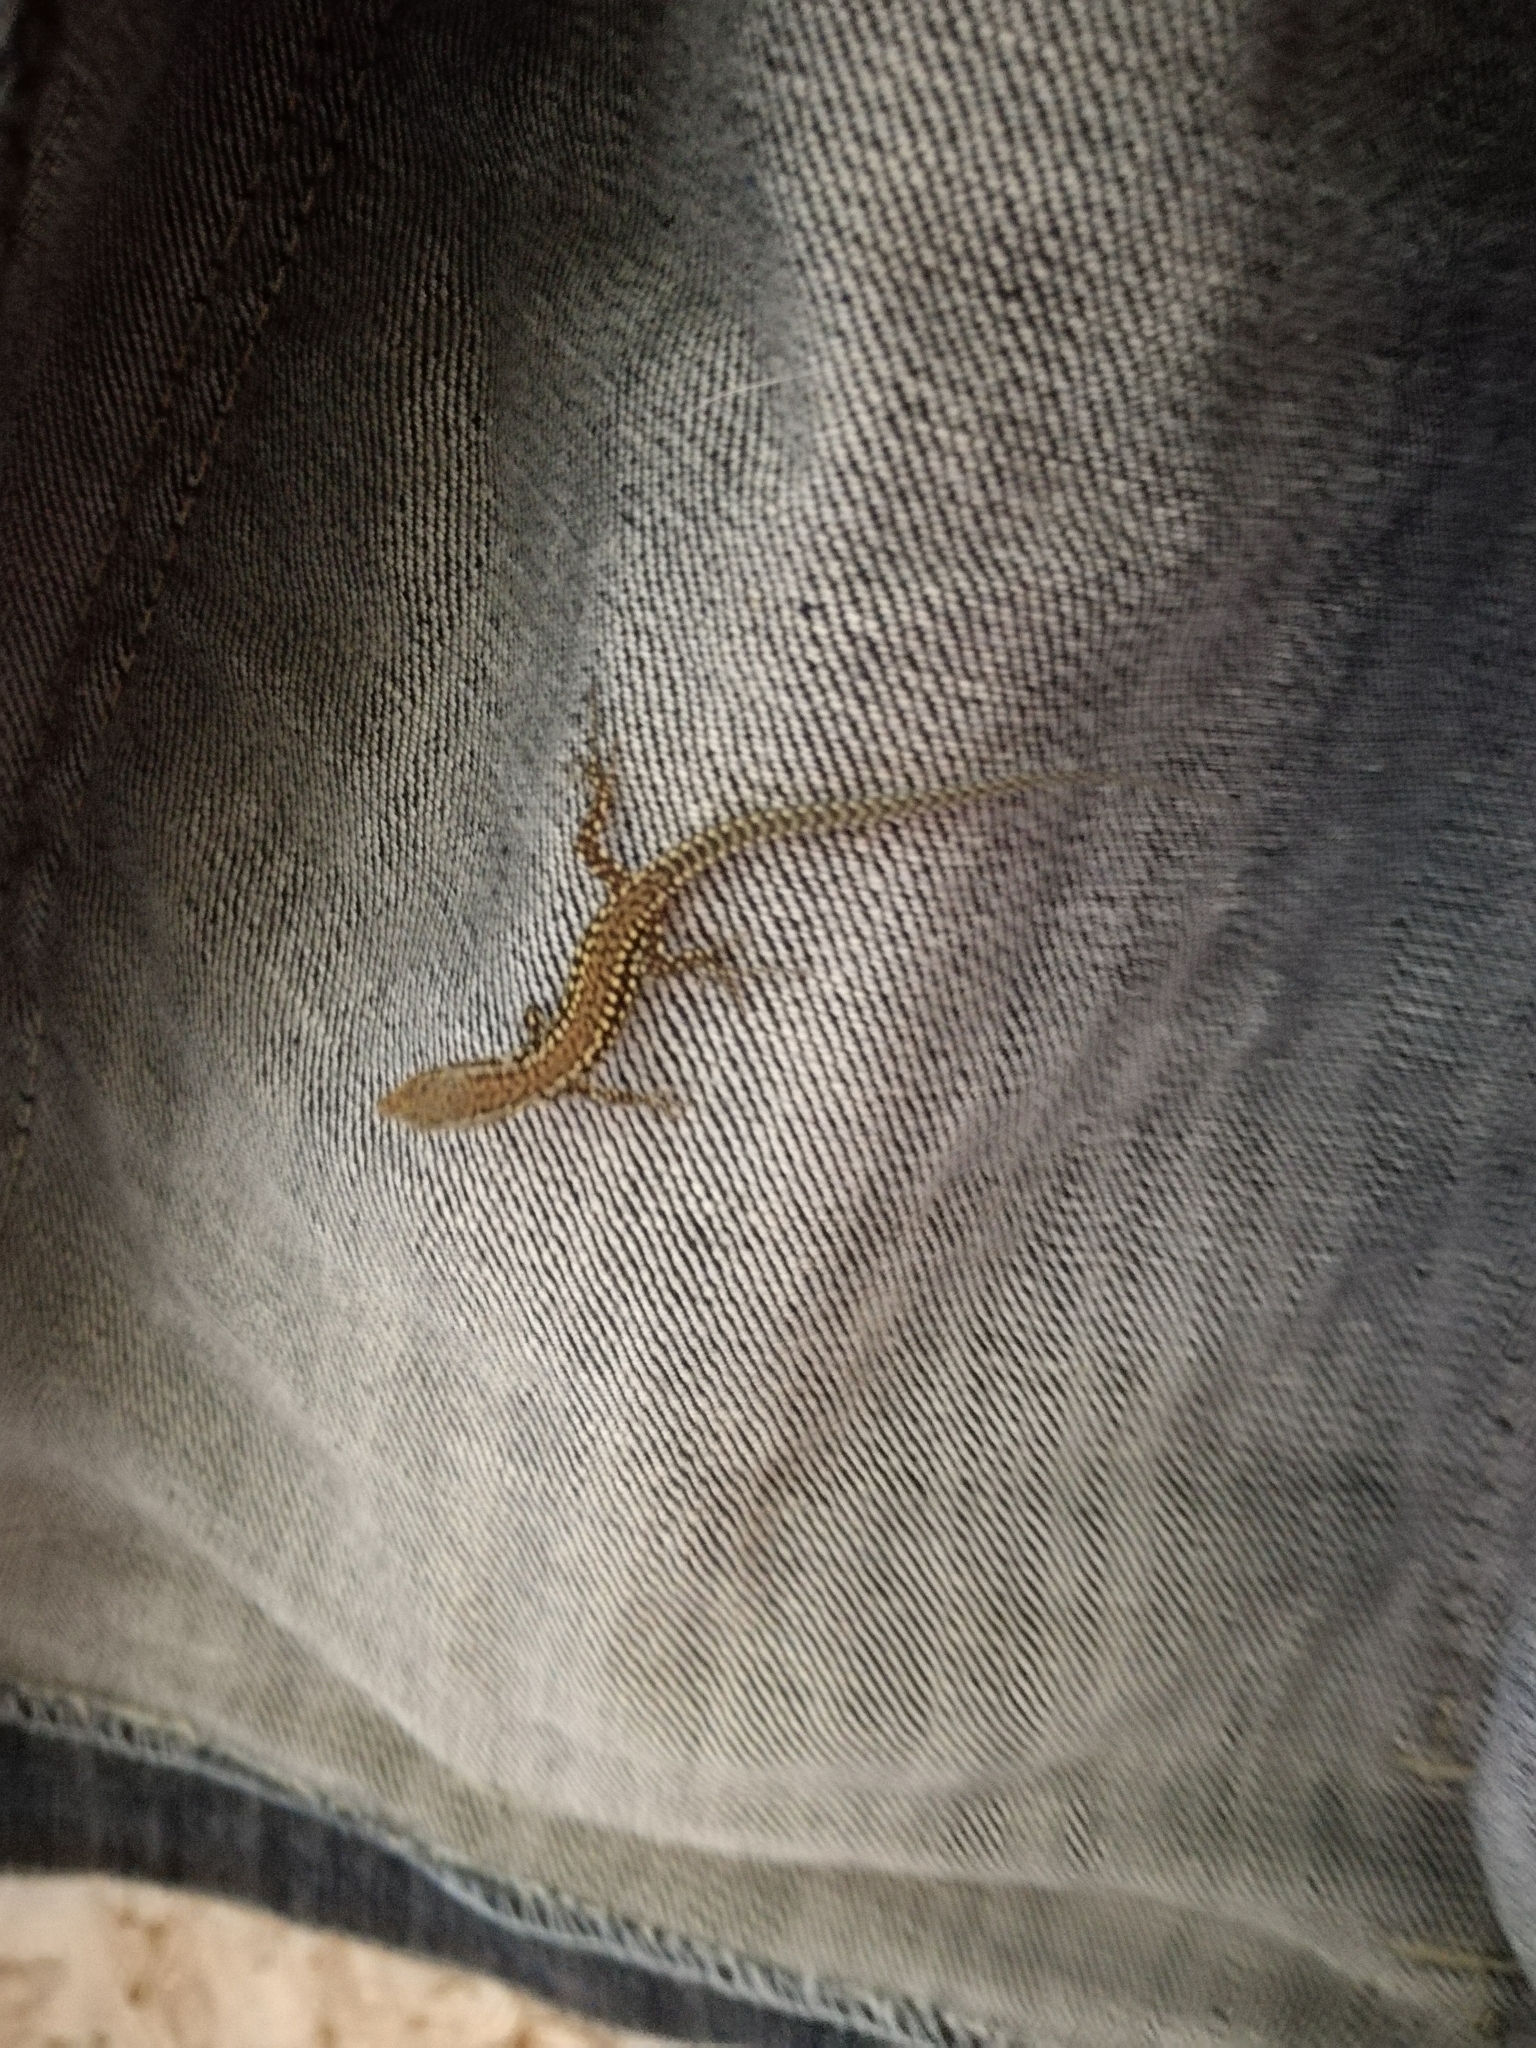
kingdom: Animalia
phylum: Chordata
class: Squamata
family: Lacertidae
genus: Podarcis
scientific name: Podarcis muralis
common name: Common wall lizard
